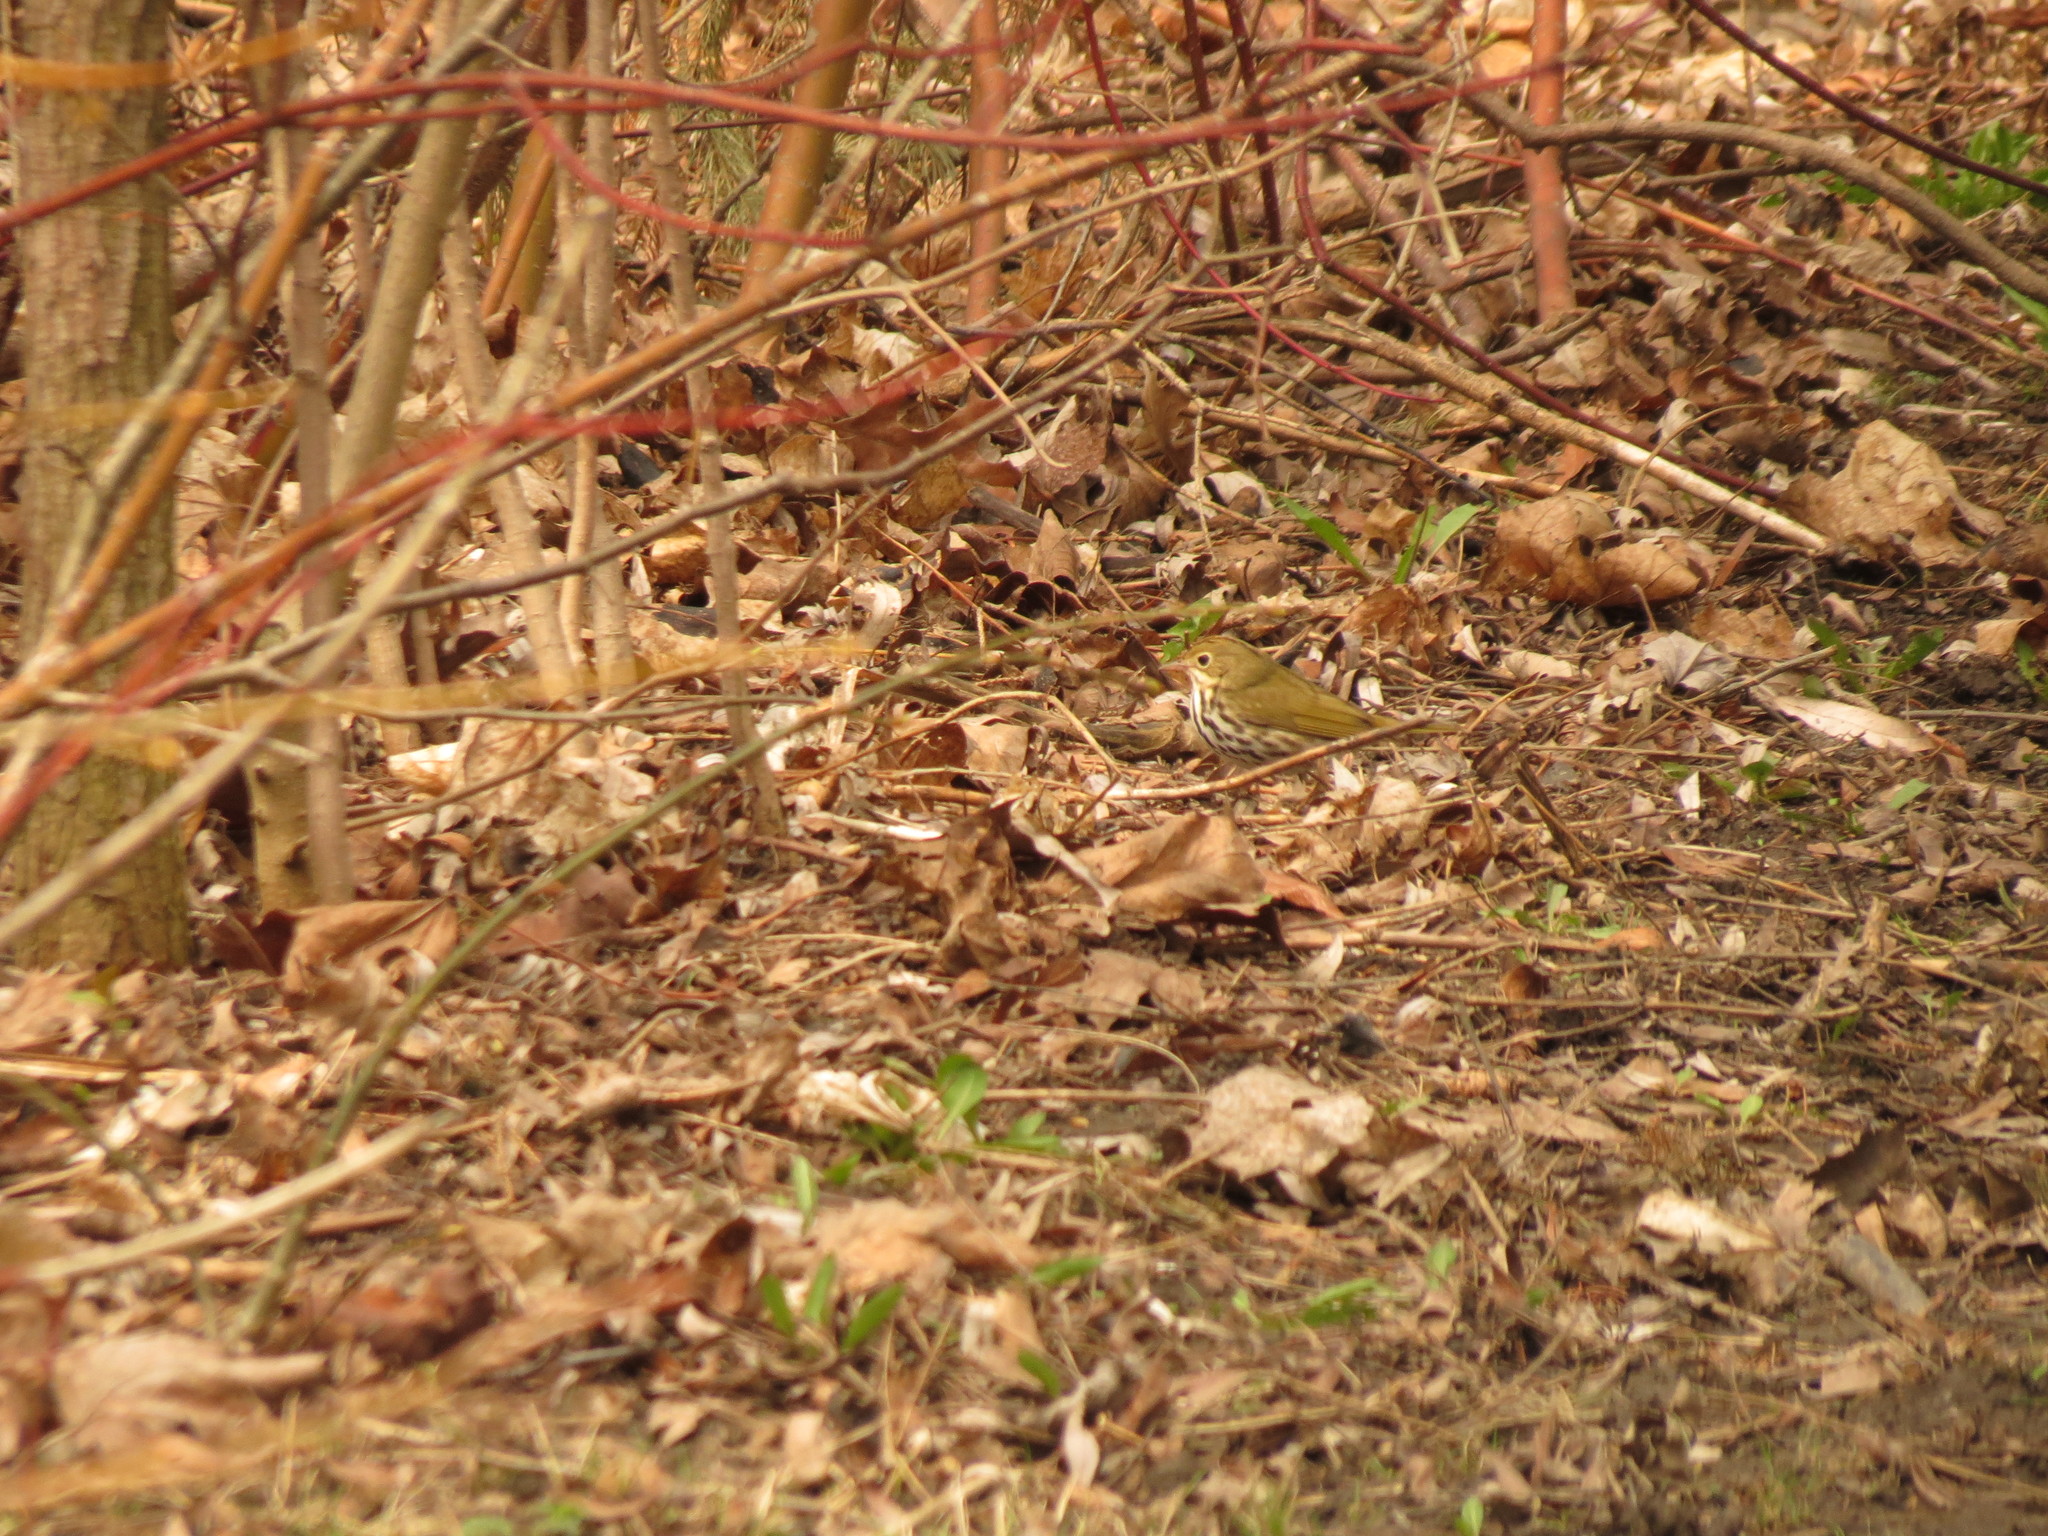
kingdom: Animalia
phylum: Chordata
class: Aves
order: Passeriformes
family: Parulidae
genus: Seiurus
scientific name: Seiurus aurocapilla
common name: Ovenbird
